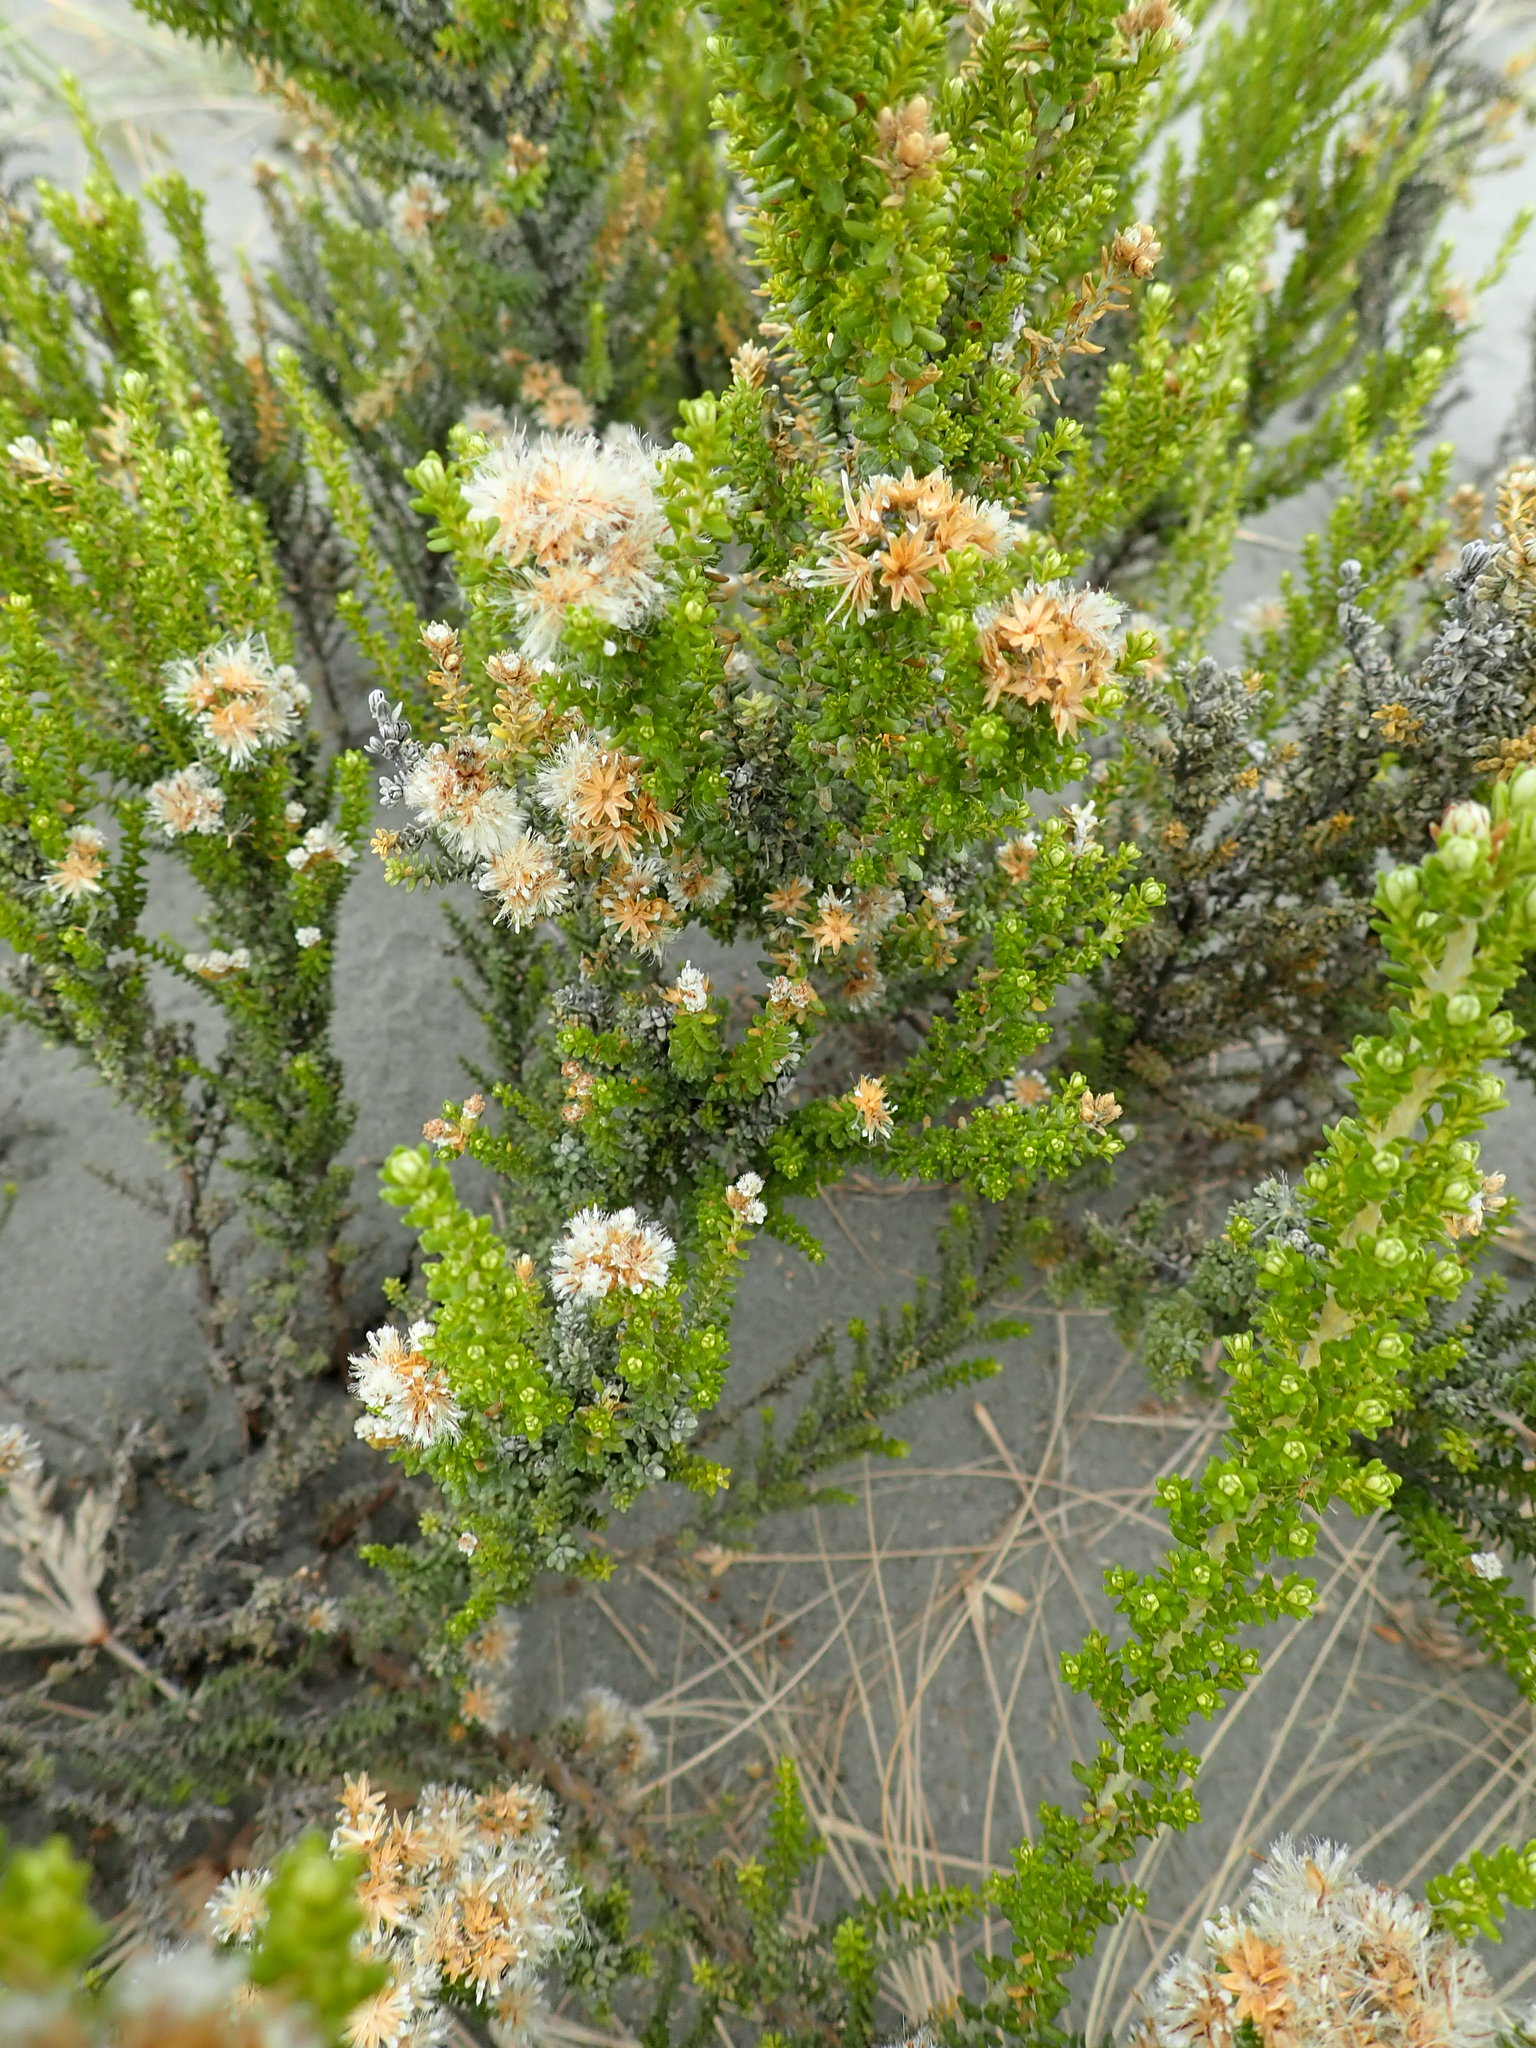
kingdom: Plantae
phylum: Tracheophyta
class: Magnoliopsida
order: Asterales
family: Asteraceae
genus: Ozothamnus
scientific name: Ozothamnus leptophyllus
